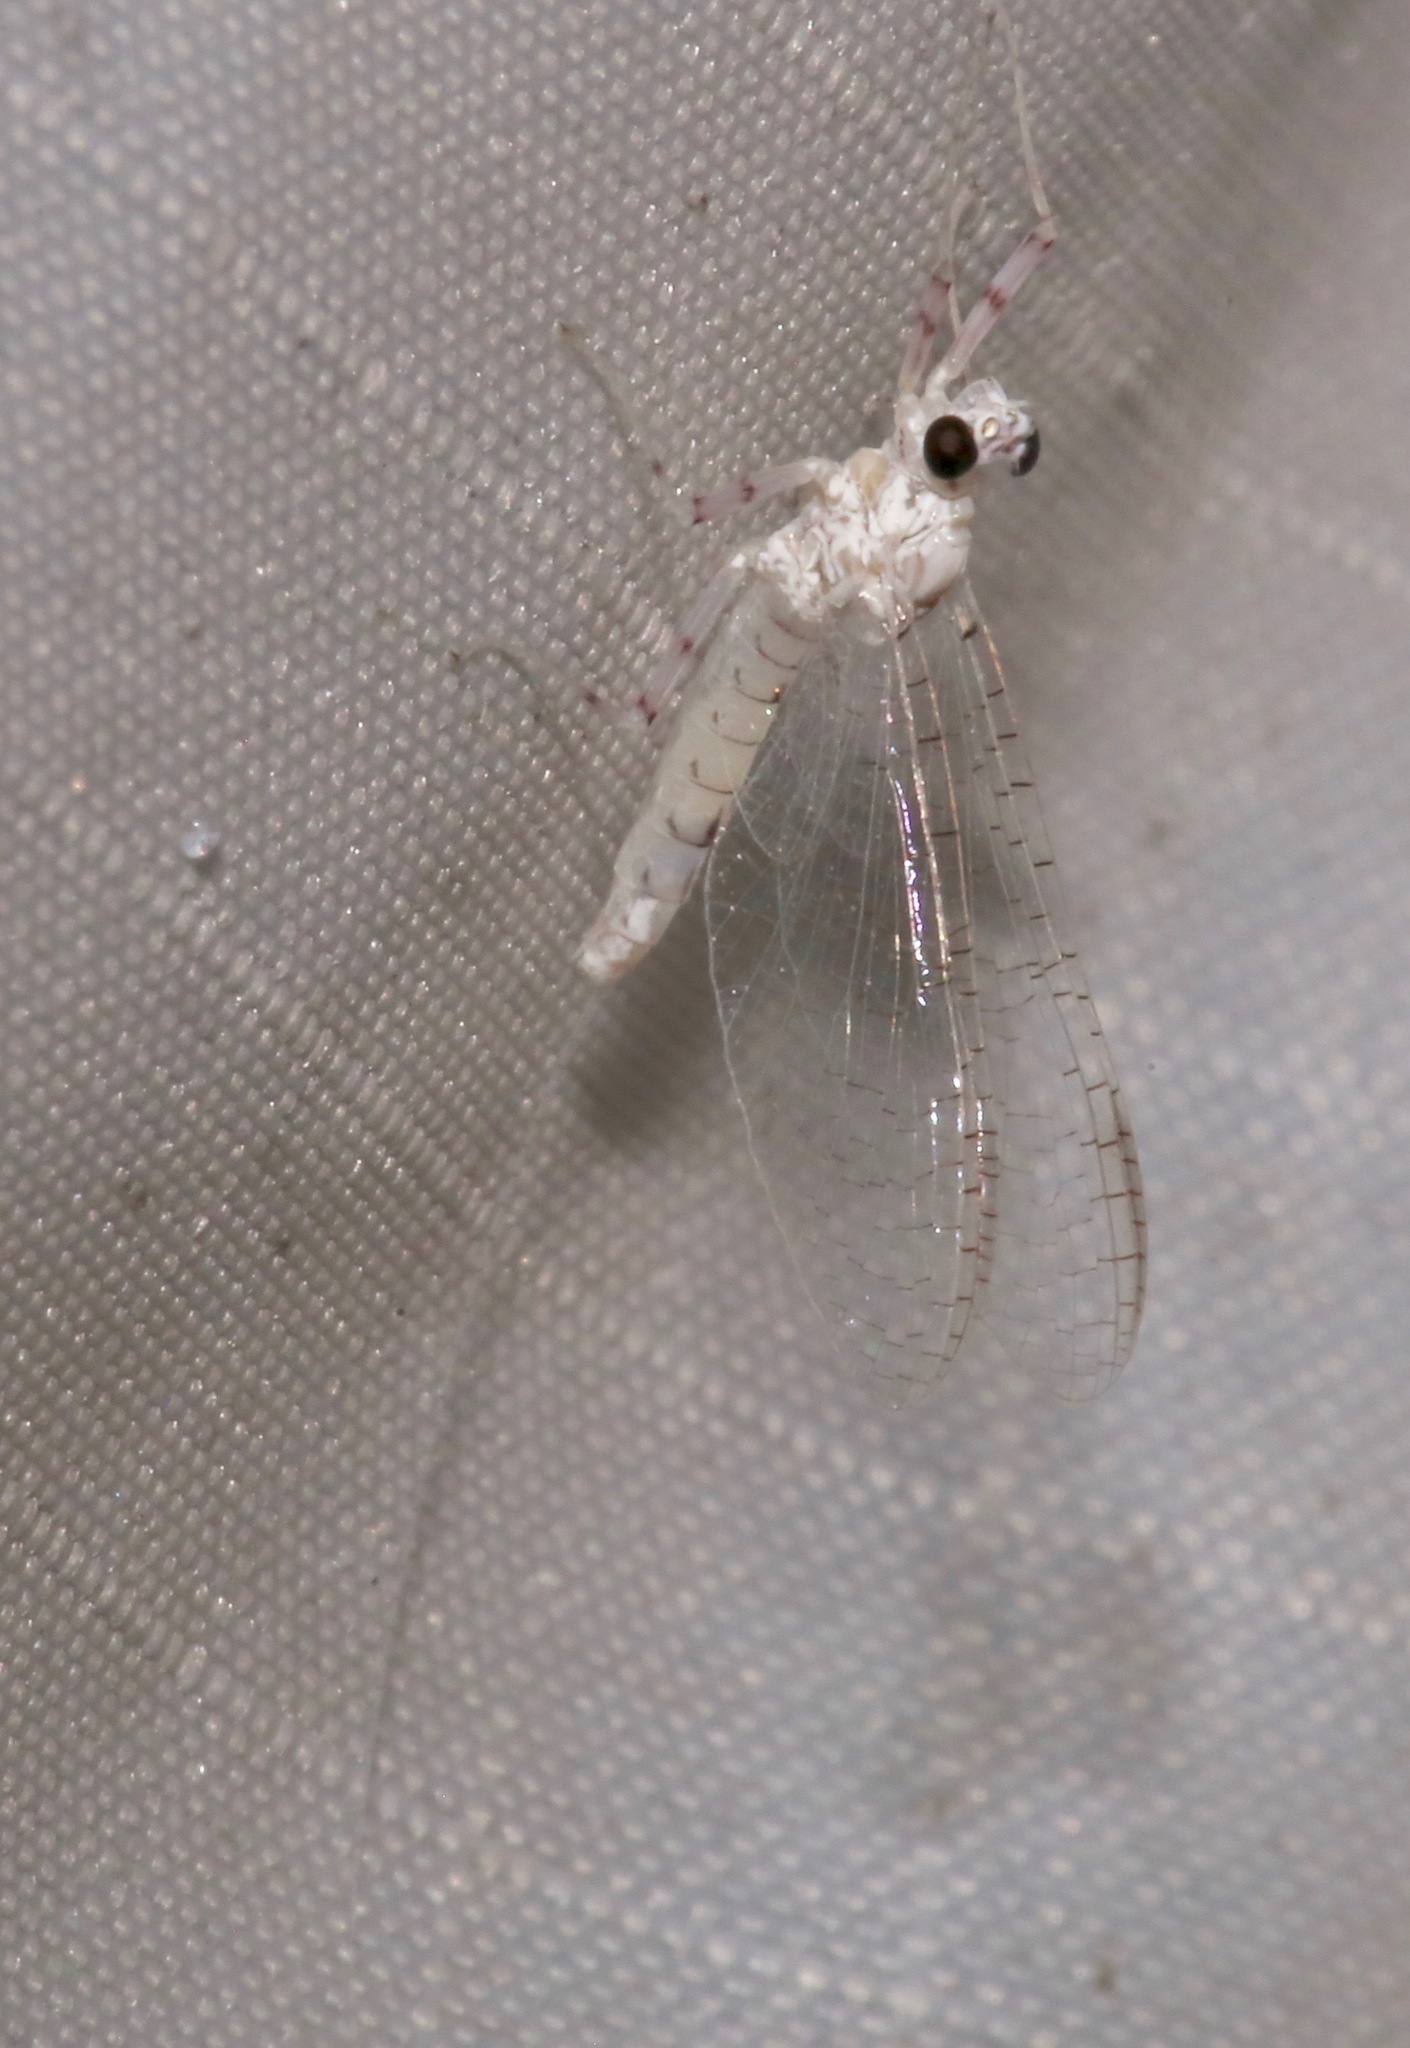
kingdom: Animalia
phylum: Arthropoda
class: Insecta
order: Ephemeroptera
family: Heptageniidae
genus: Maccaffertium
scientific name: Maccaffertium mexicanum
